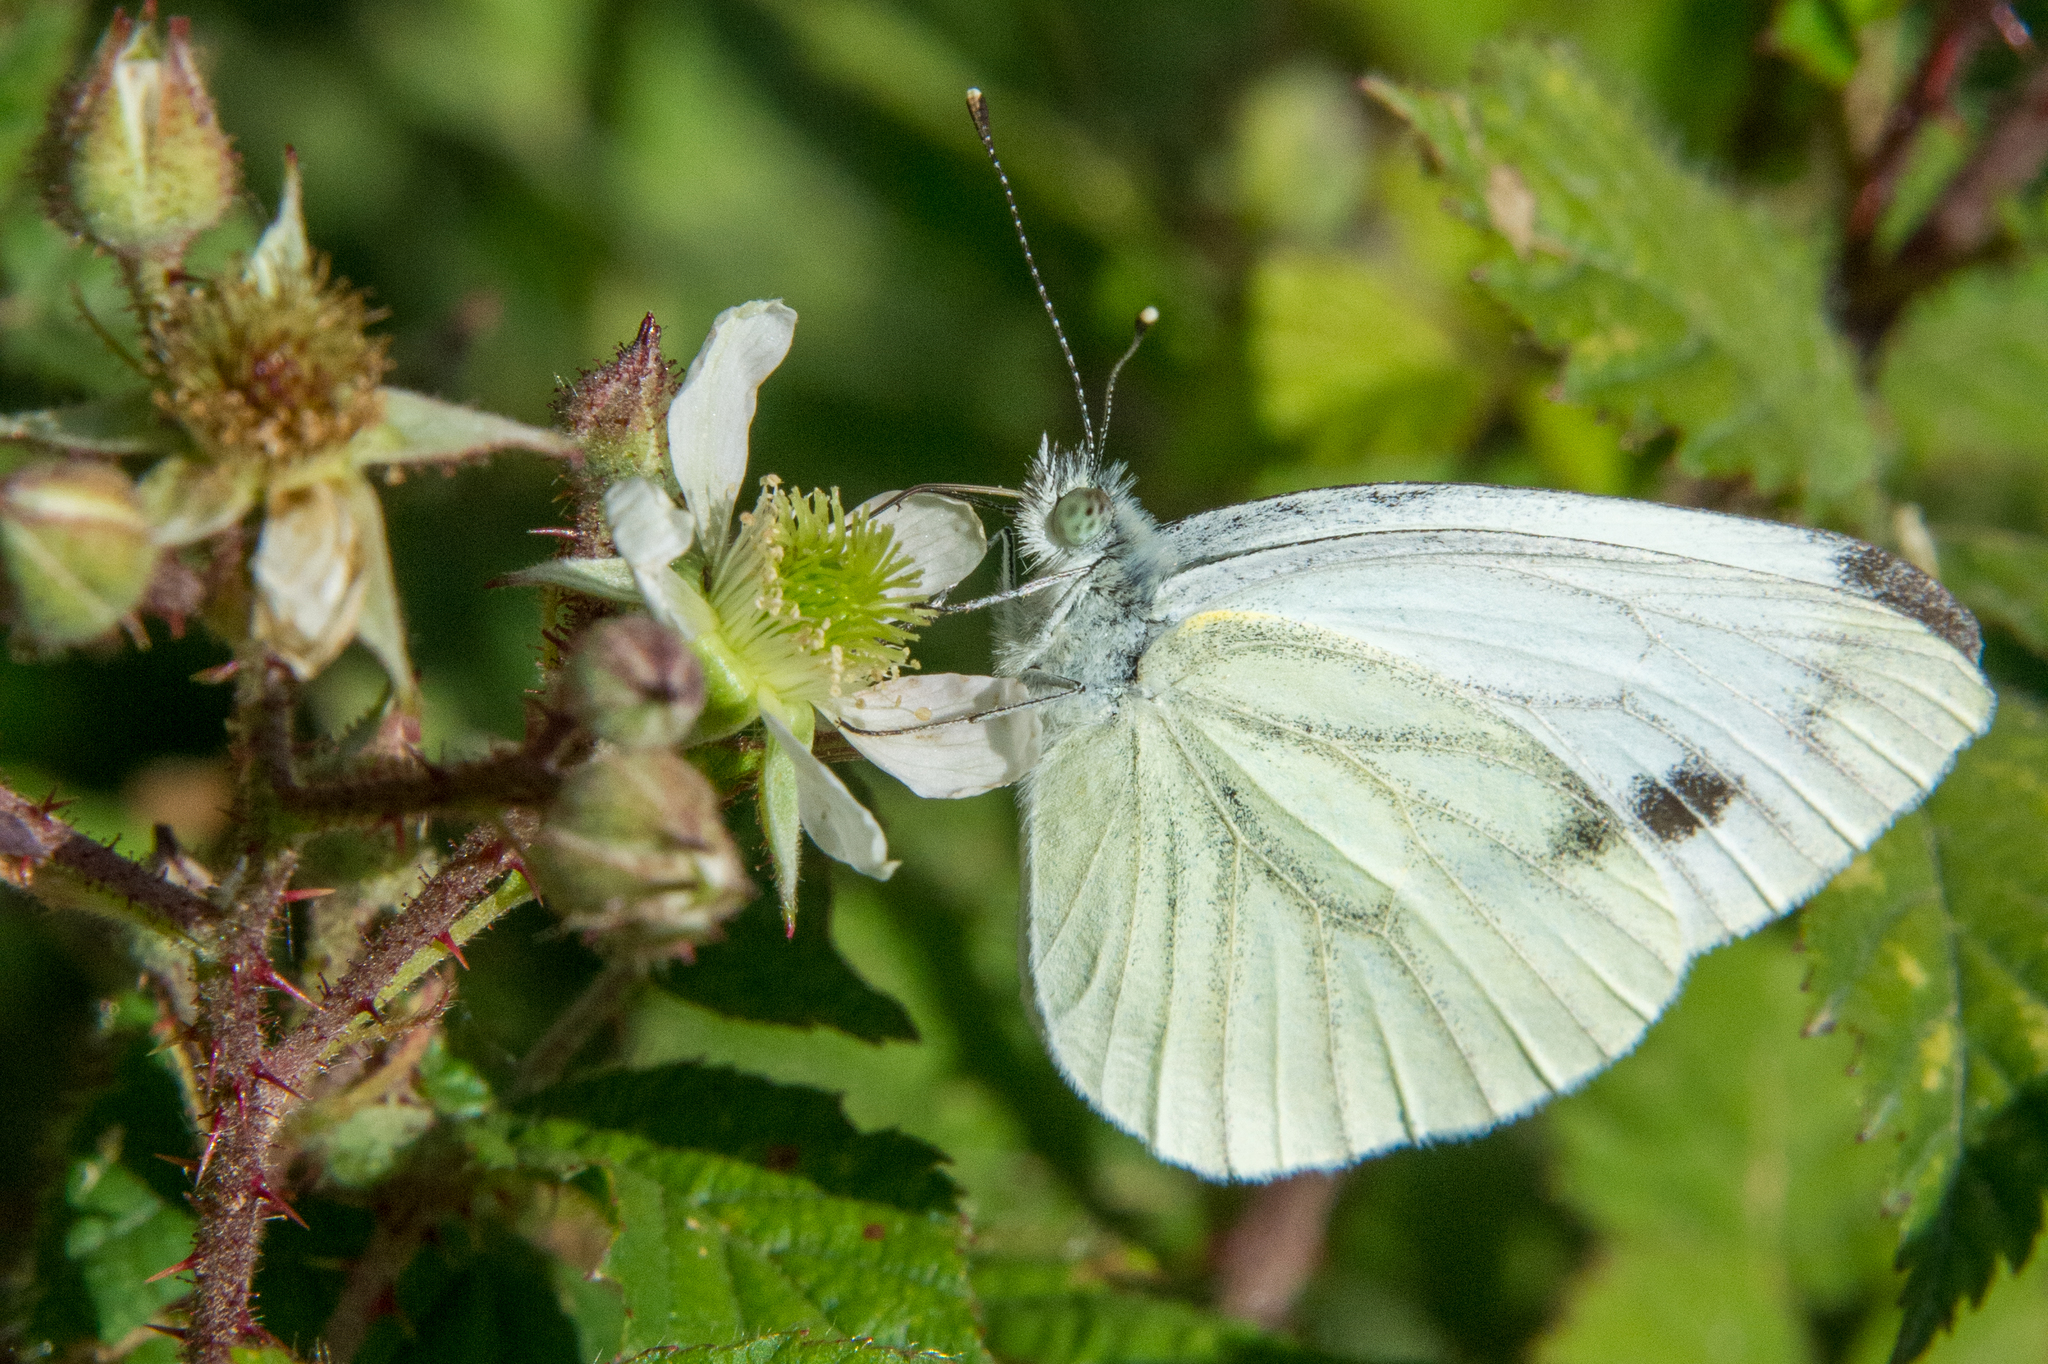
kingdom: Animalia
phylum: Arthropoda
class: Insecta
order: Lepidoptera
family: Pieridae
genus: Pieris
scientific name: Pieris napi
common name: Green-veined white
